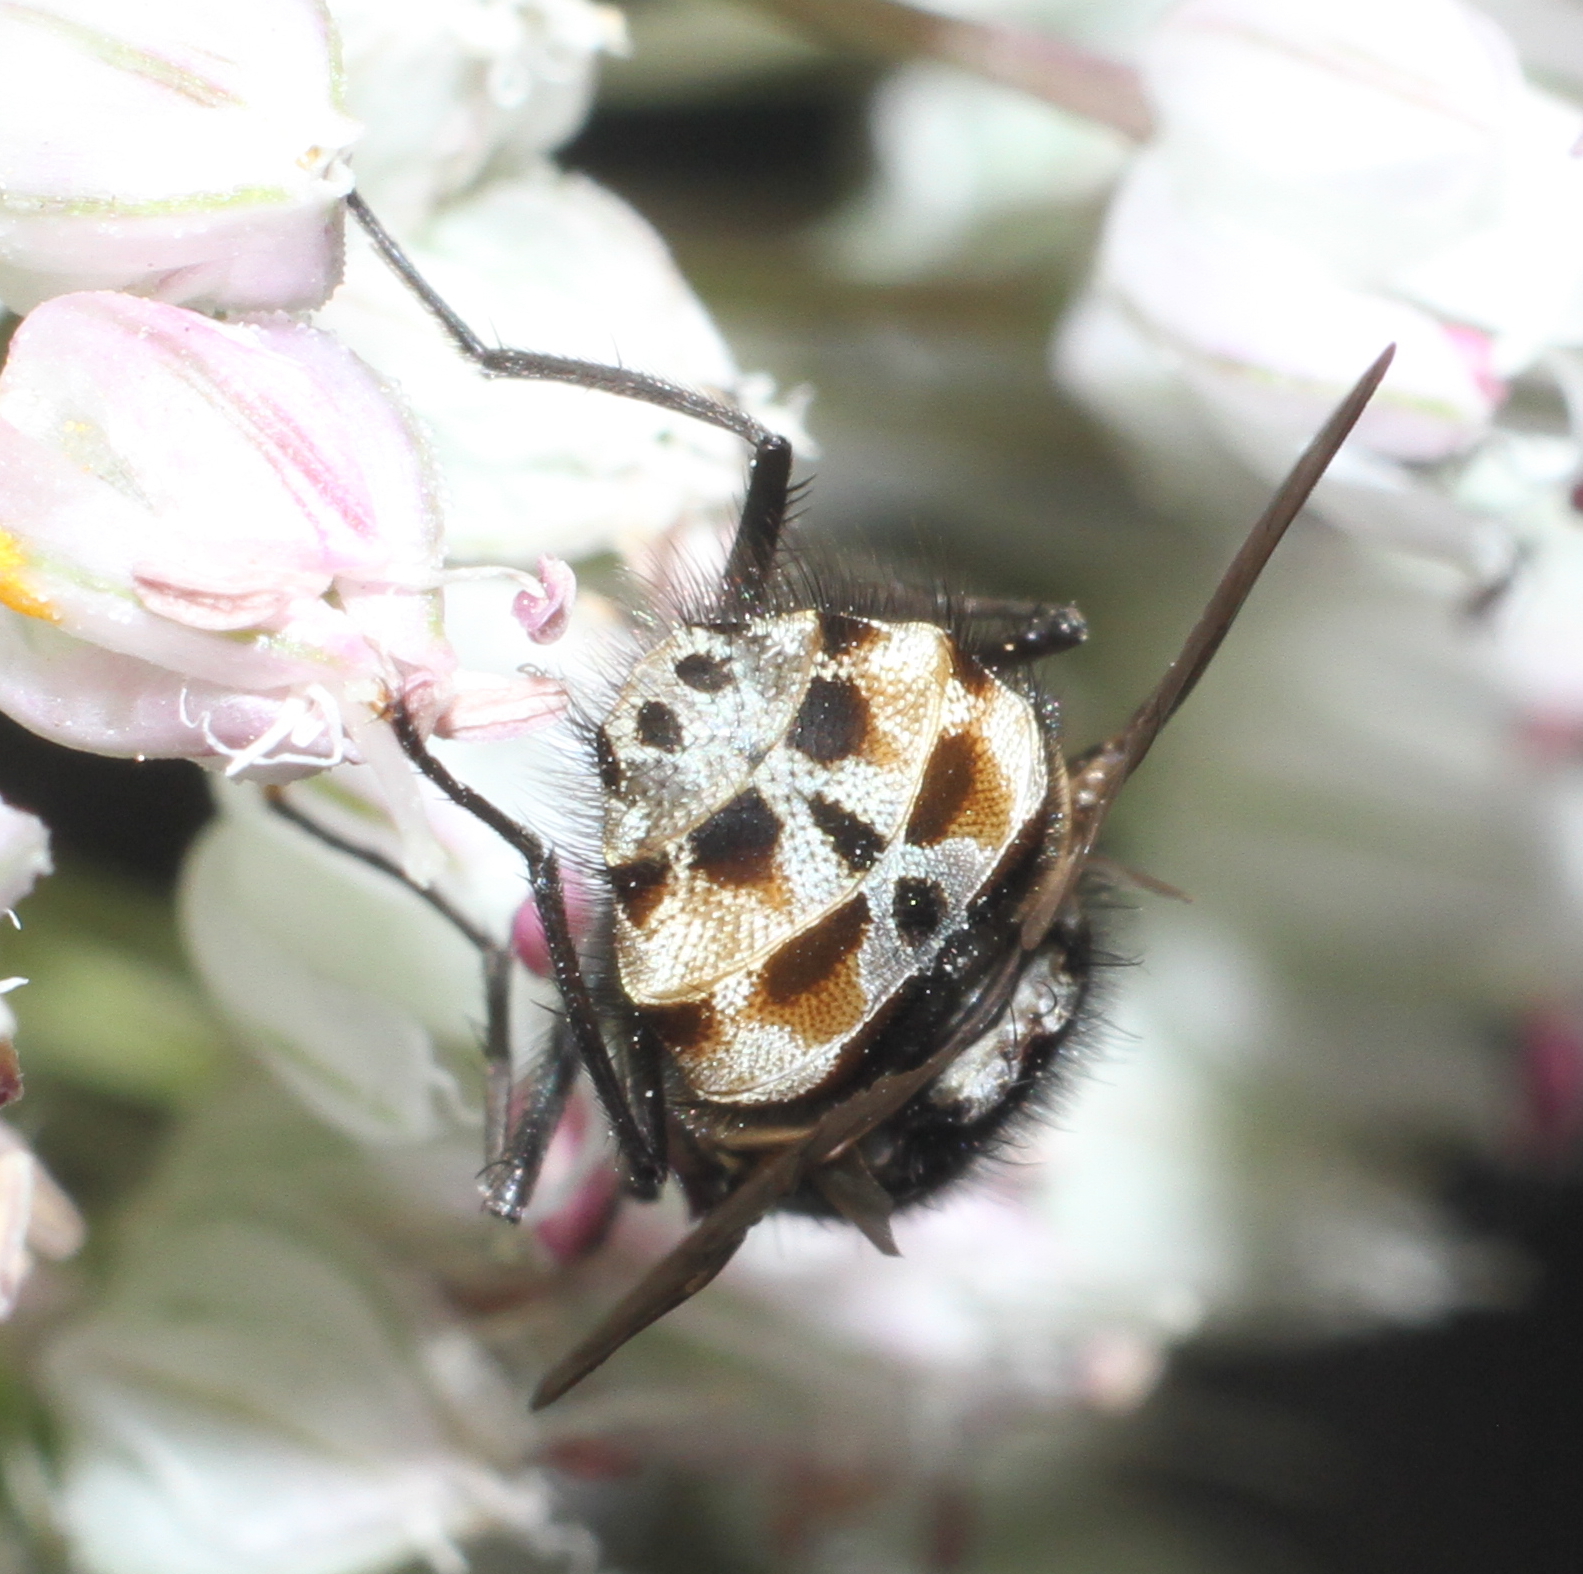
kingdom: Animalia
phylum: Arthropoda
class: Insecta
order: Diptera
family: Muscidae
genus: Graphomya
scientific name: Graphomya maculata
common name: Muscid fly
